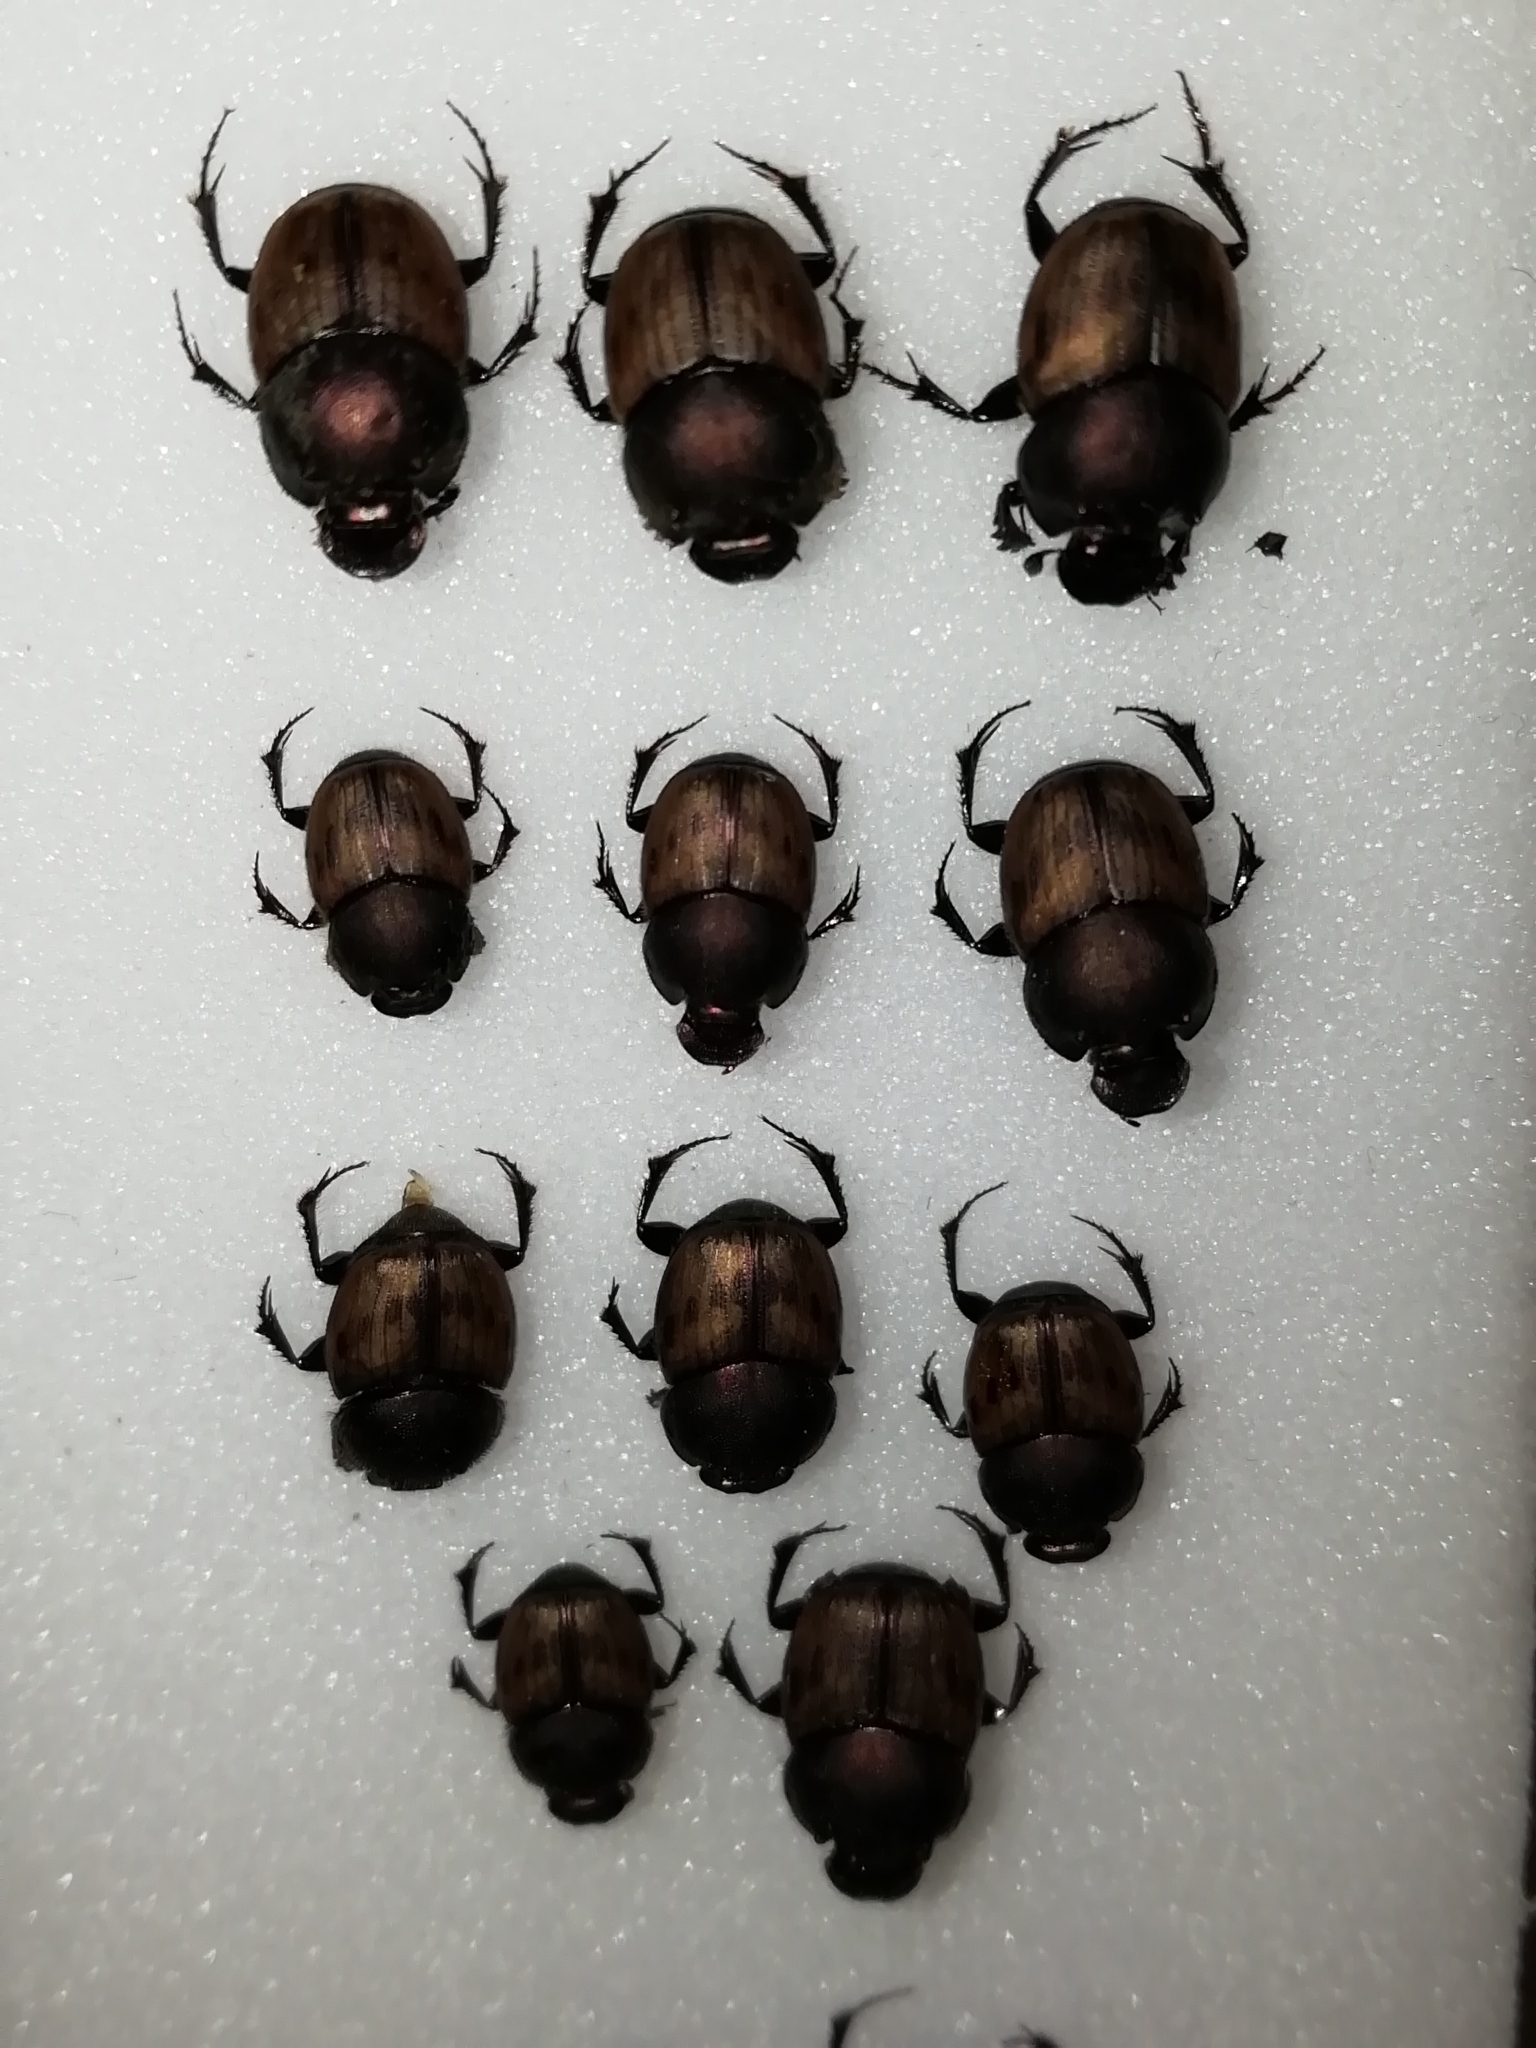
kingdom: Animalia
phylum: Arthropoda
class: Insecta
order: Coleoptera
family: Scarabaeidae
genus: Onthophagus
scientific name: Onthophagus lemur
